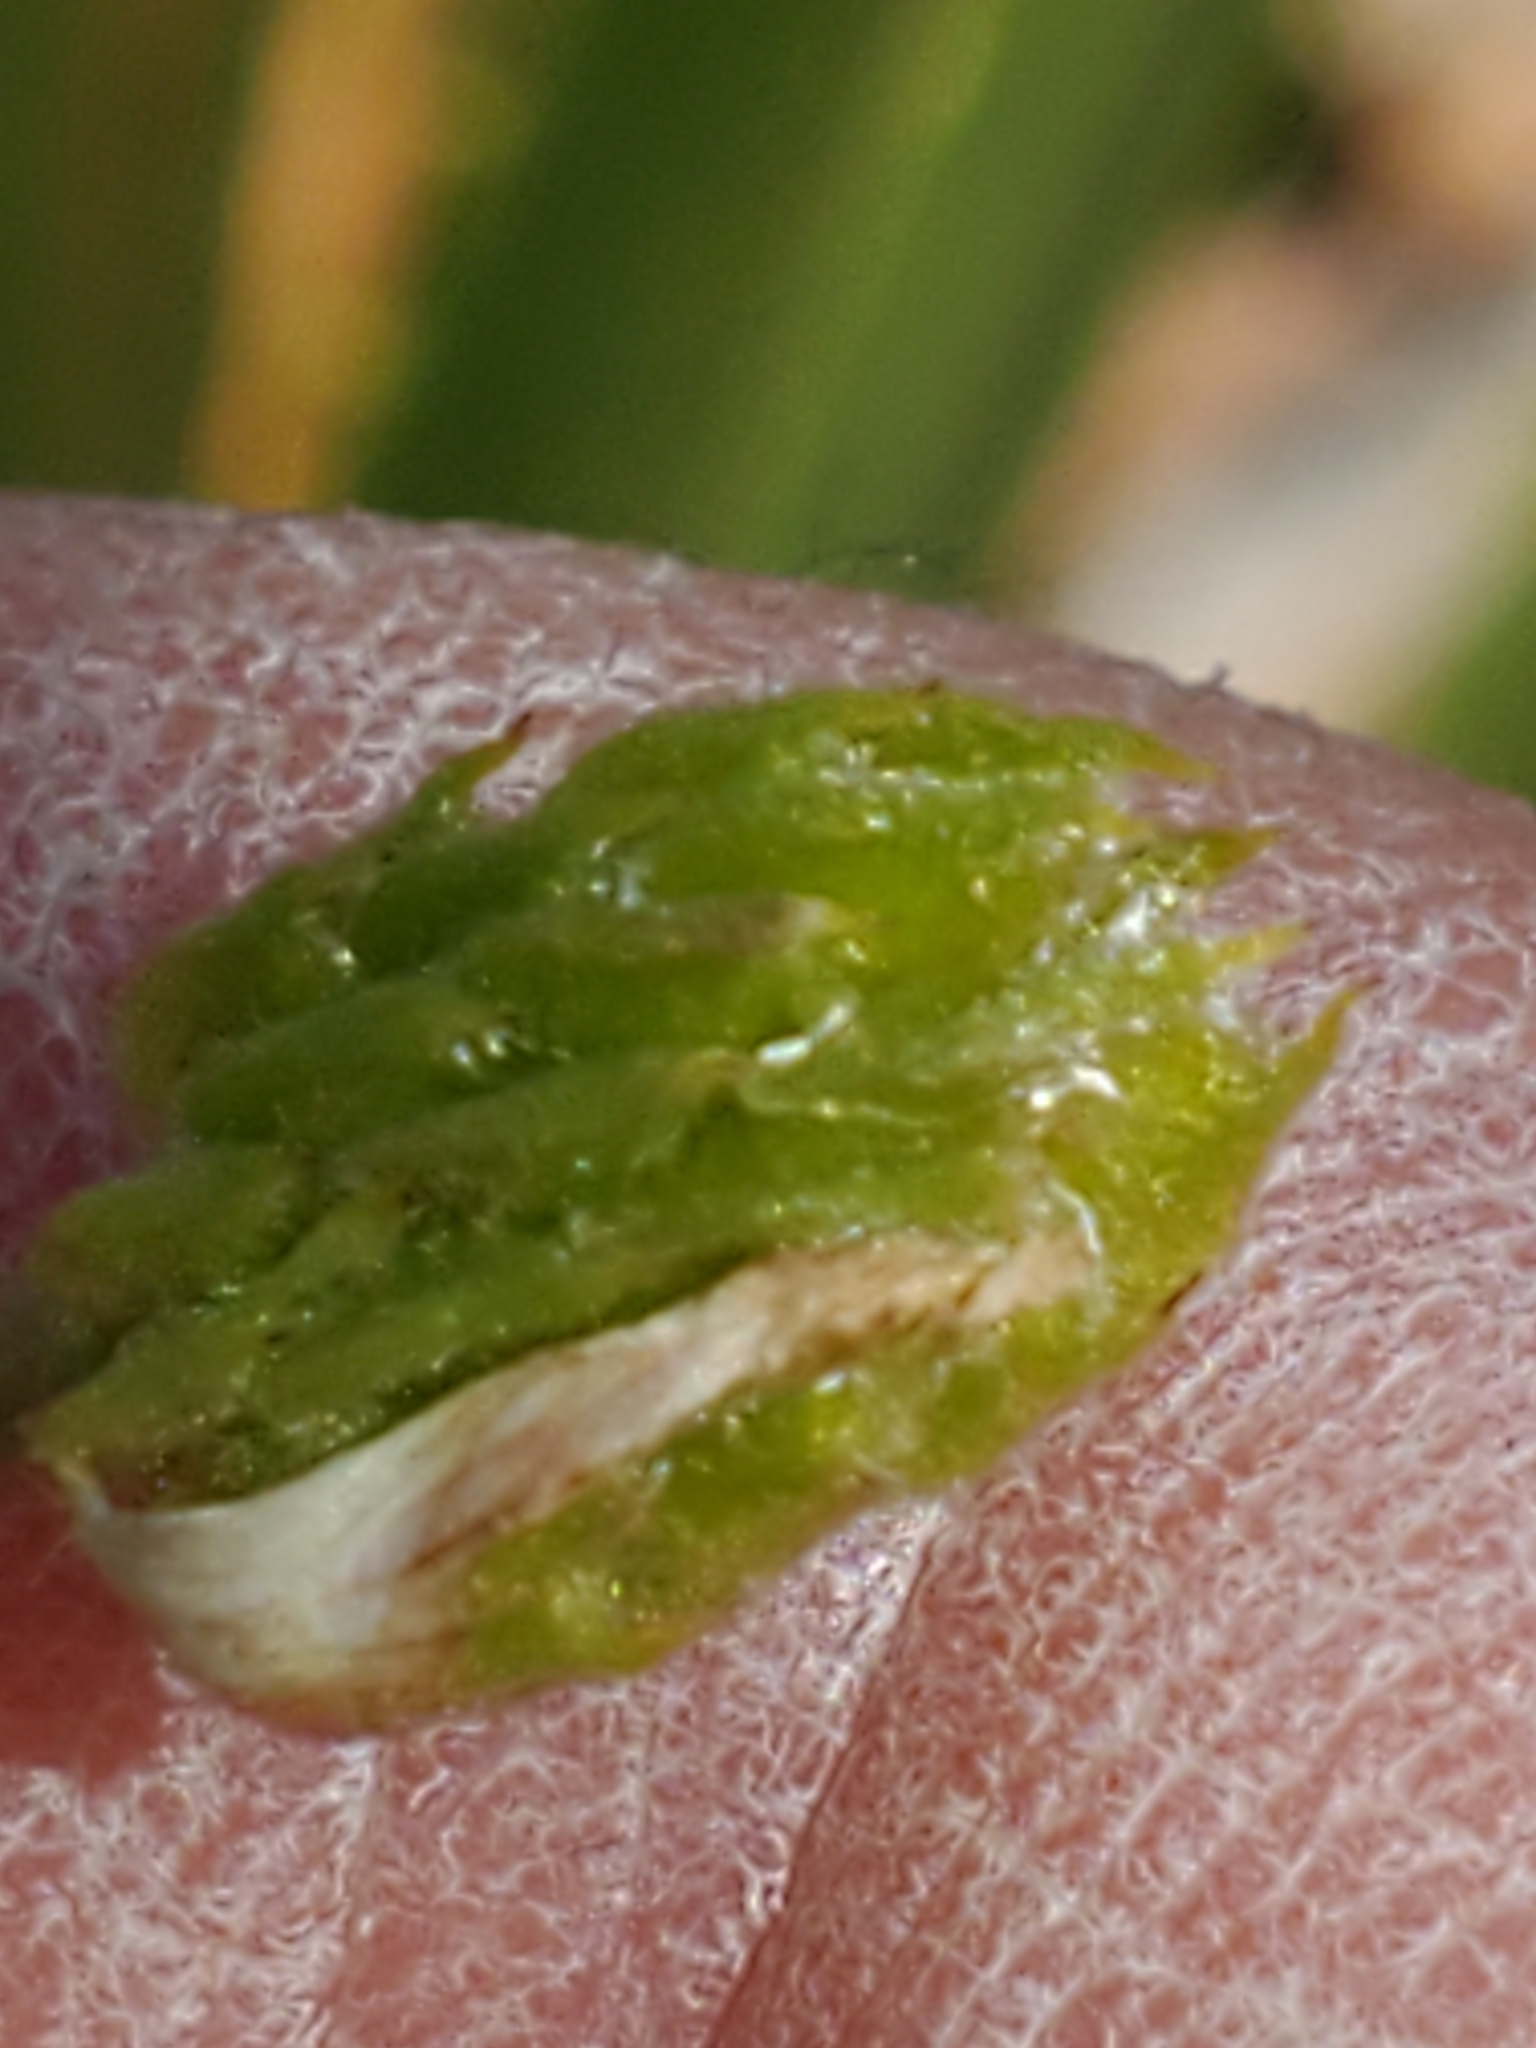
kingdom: Plantae
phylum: Tracheophyta
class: Magnoliopsida
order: Ranunculales
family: Ranunculaceae
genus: Anemone
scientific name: Anemone edwardsiana
